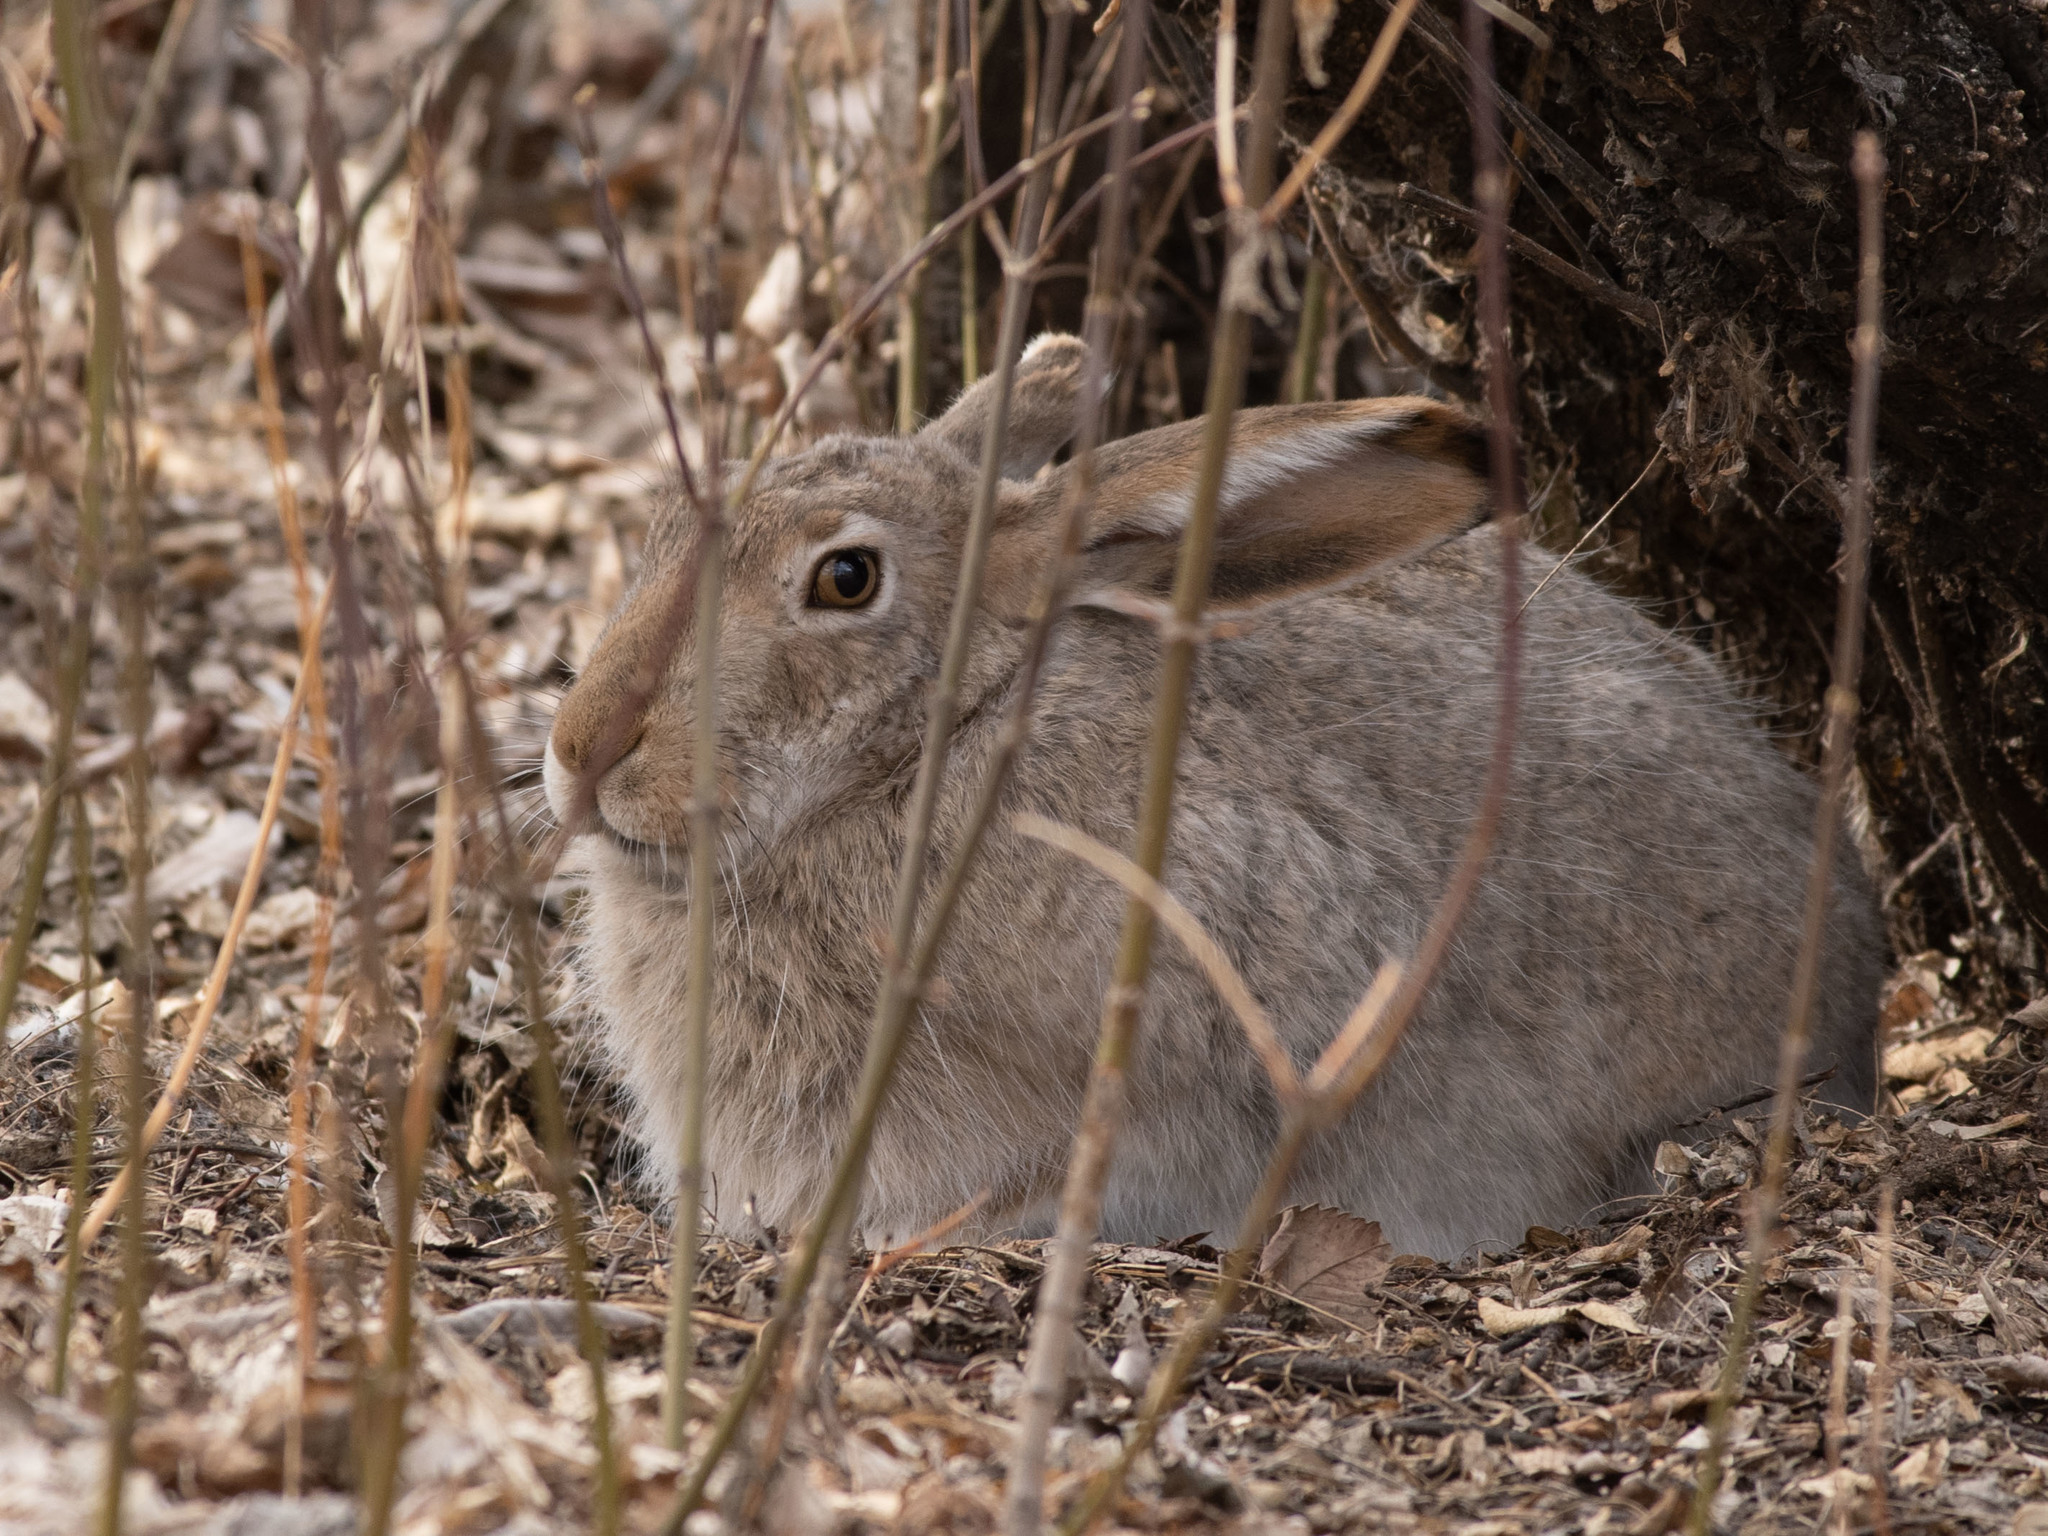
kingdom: Animalia
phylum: Chordata
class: Mammalia
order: Lagomorpha
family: Leporidae
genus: Lepus
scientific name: Lepus townsendii
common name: White-tailed jackrabbit
